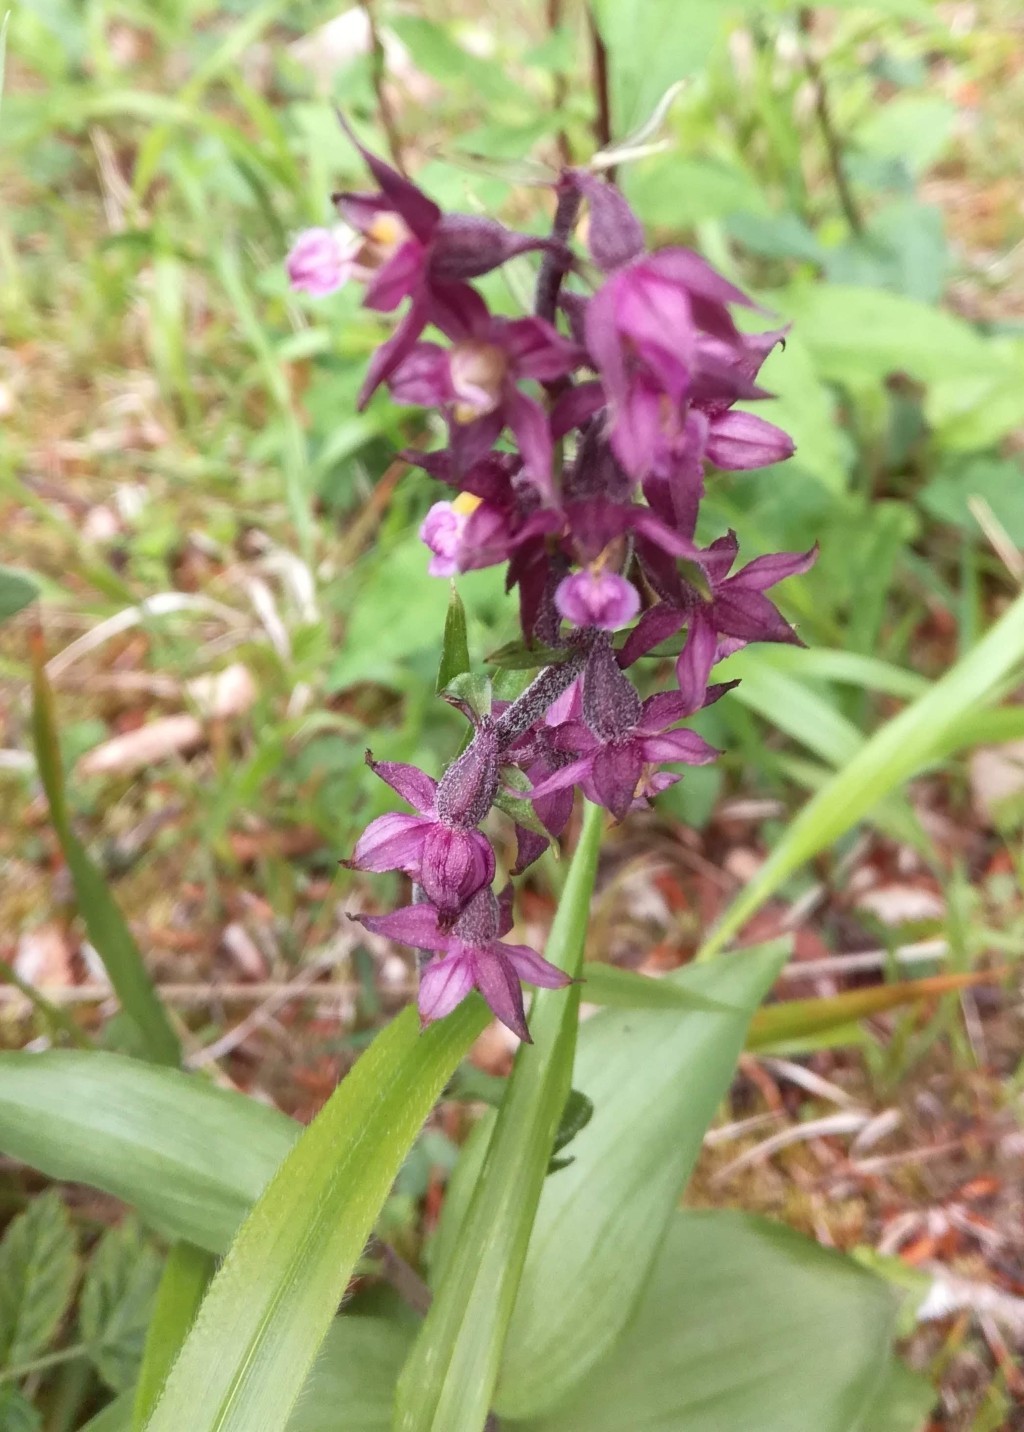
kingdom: Plantae
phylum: Tracheophyta
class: Liliopsida
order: Asparagales
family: Orchidaceae
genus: Epipactis
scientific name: Epipactis atrorubens
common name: Dark-red helleborine
